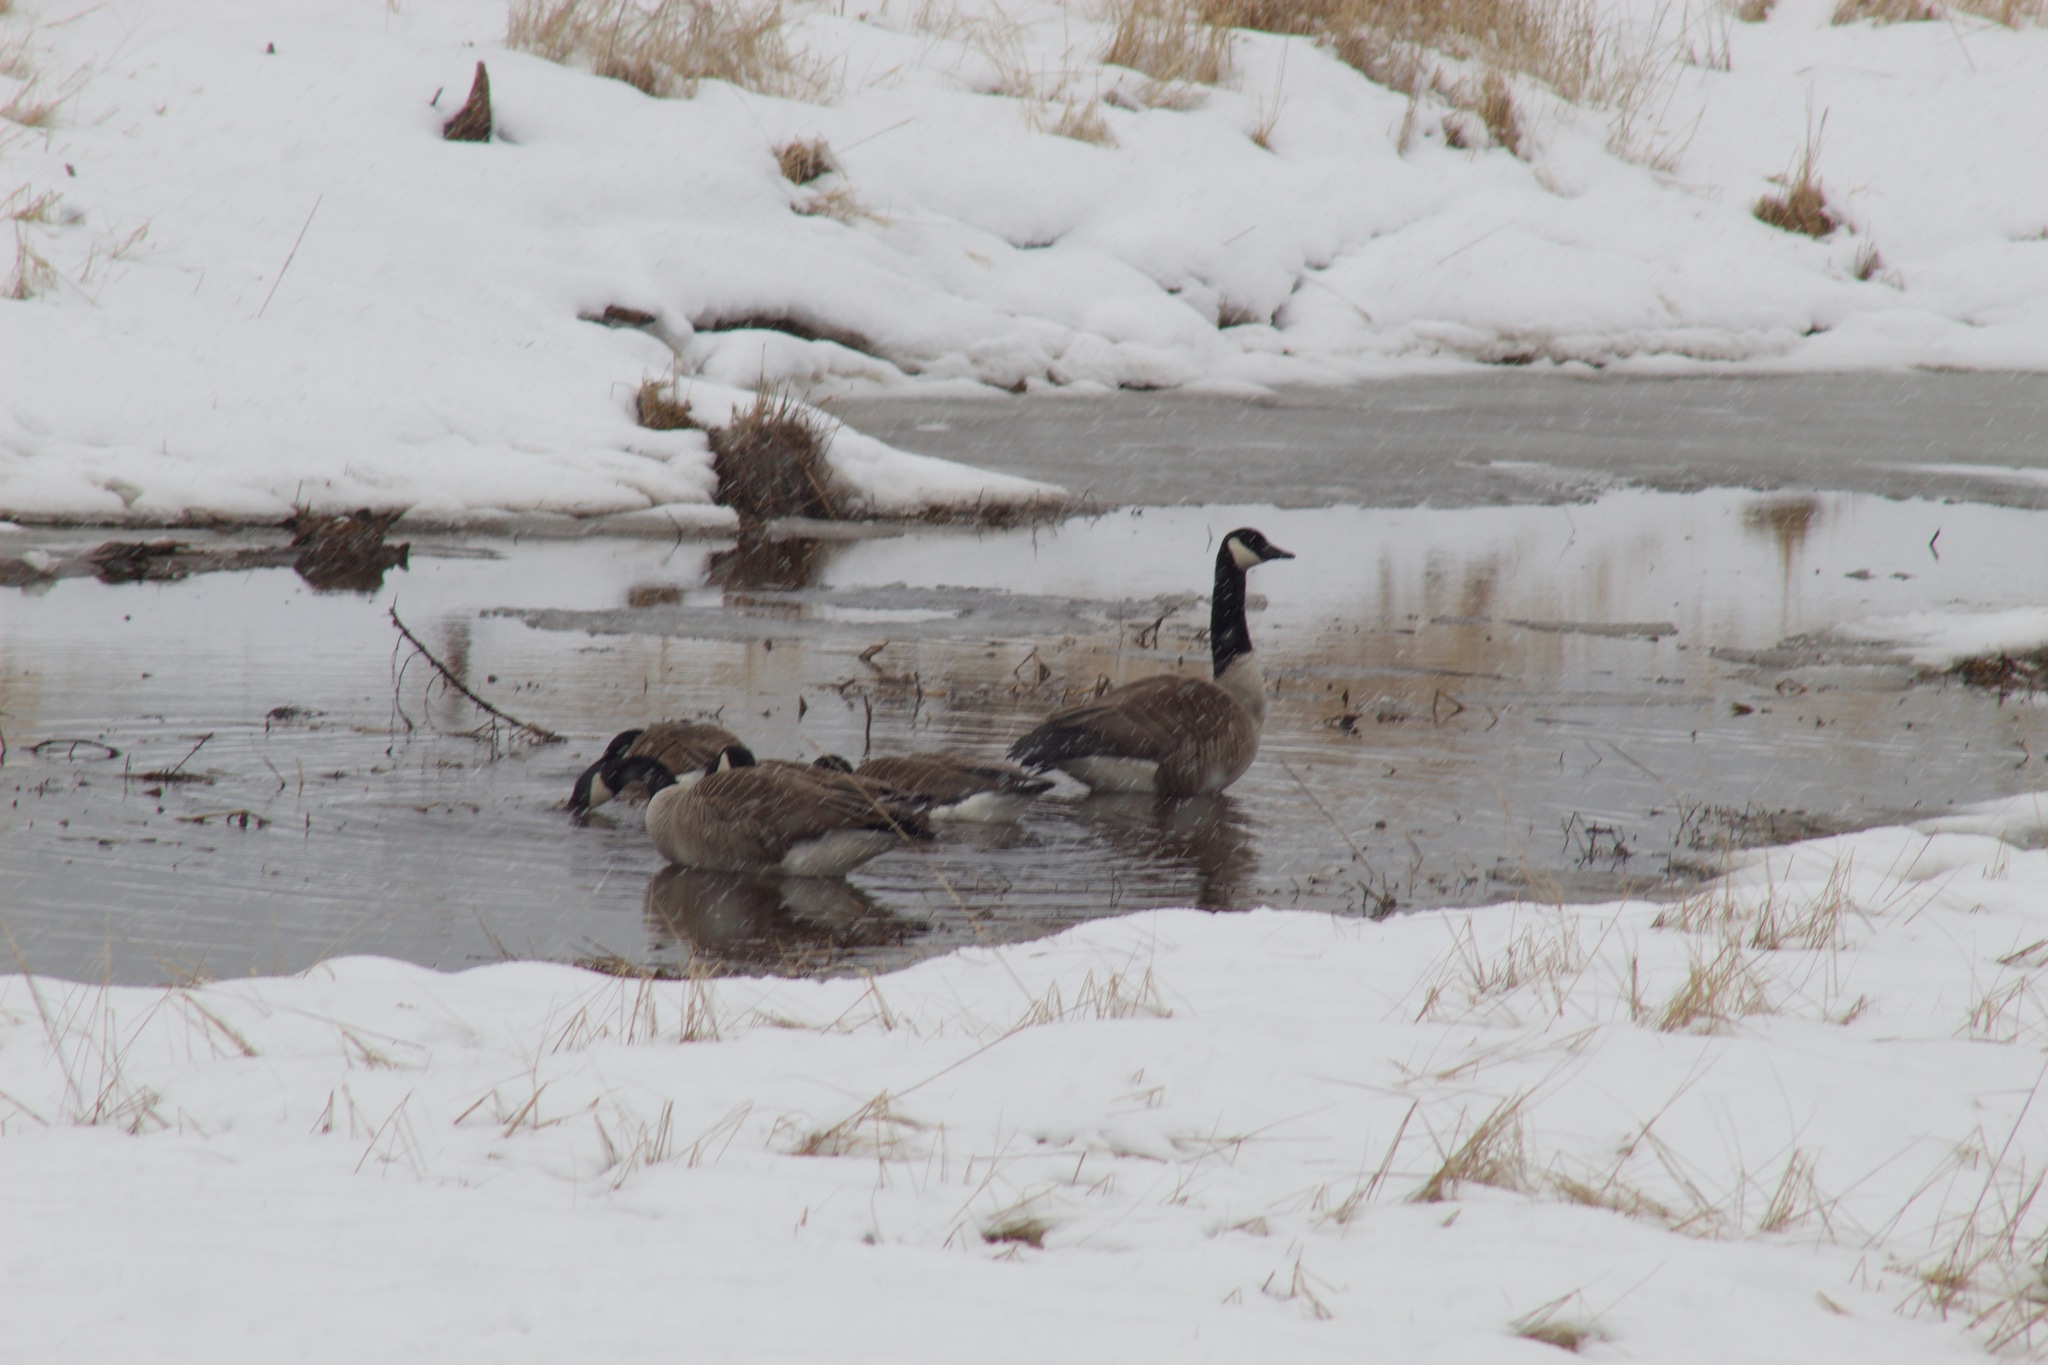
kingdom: Animalia
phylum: Chordata
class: Aves
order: Anseriformes
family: Anatidae
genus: Branta
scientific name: Branta canadensis
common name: Canada goose
